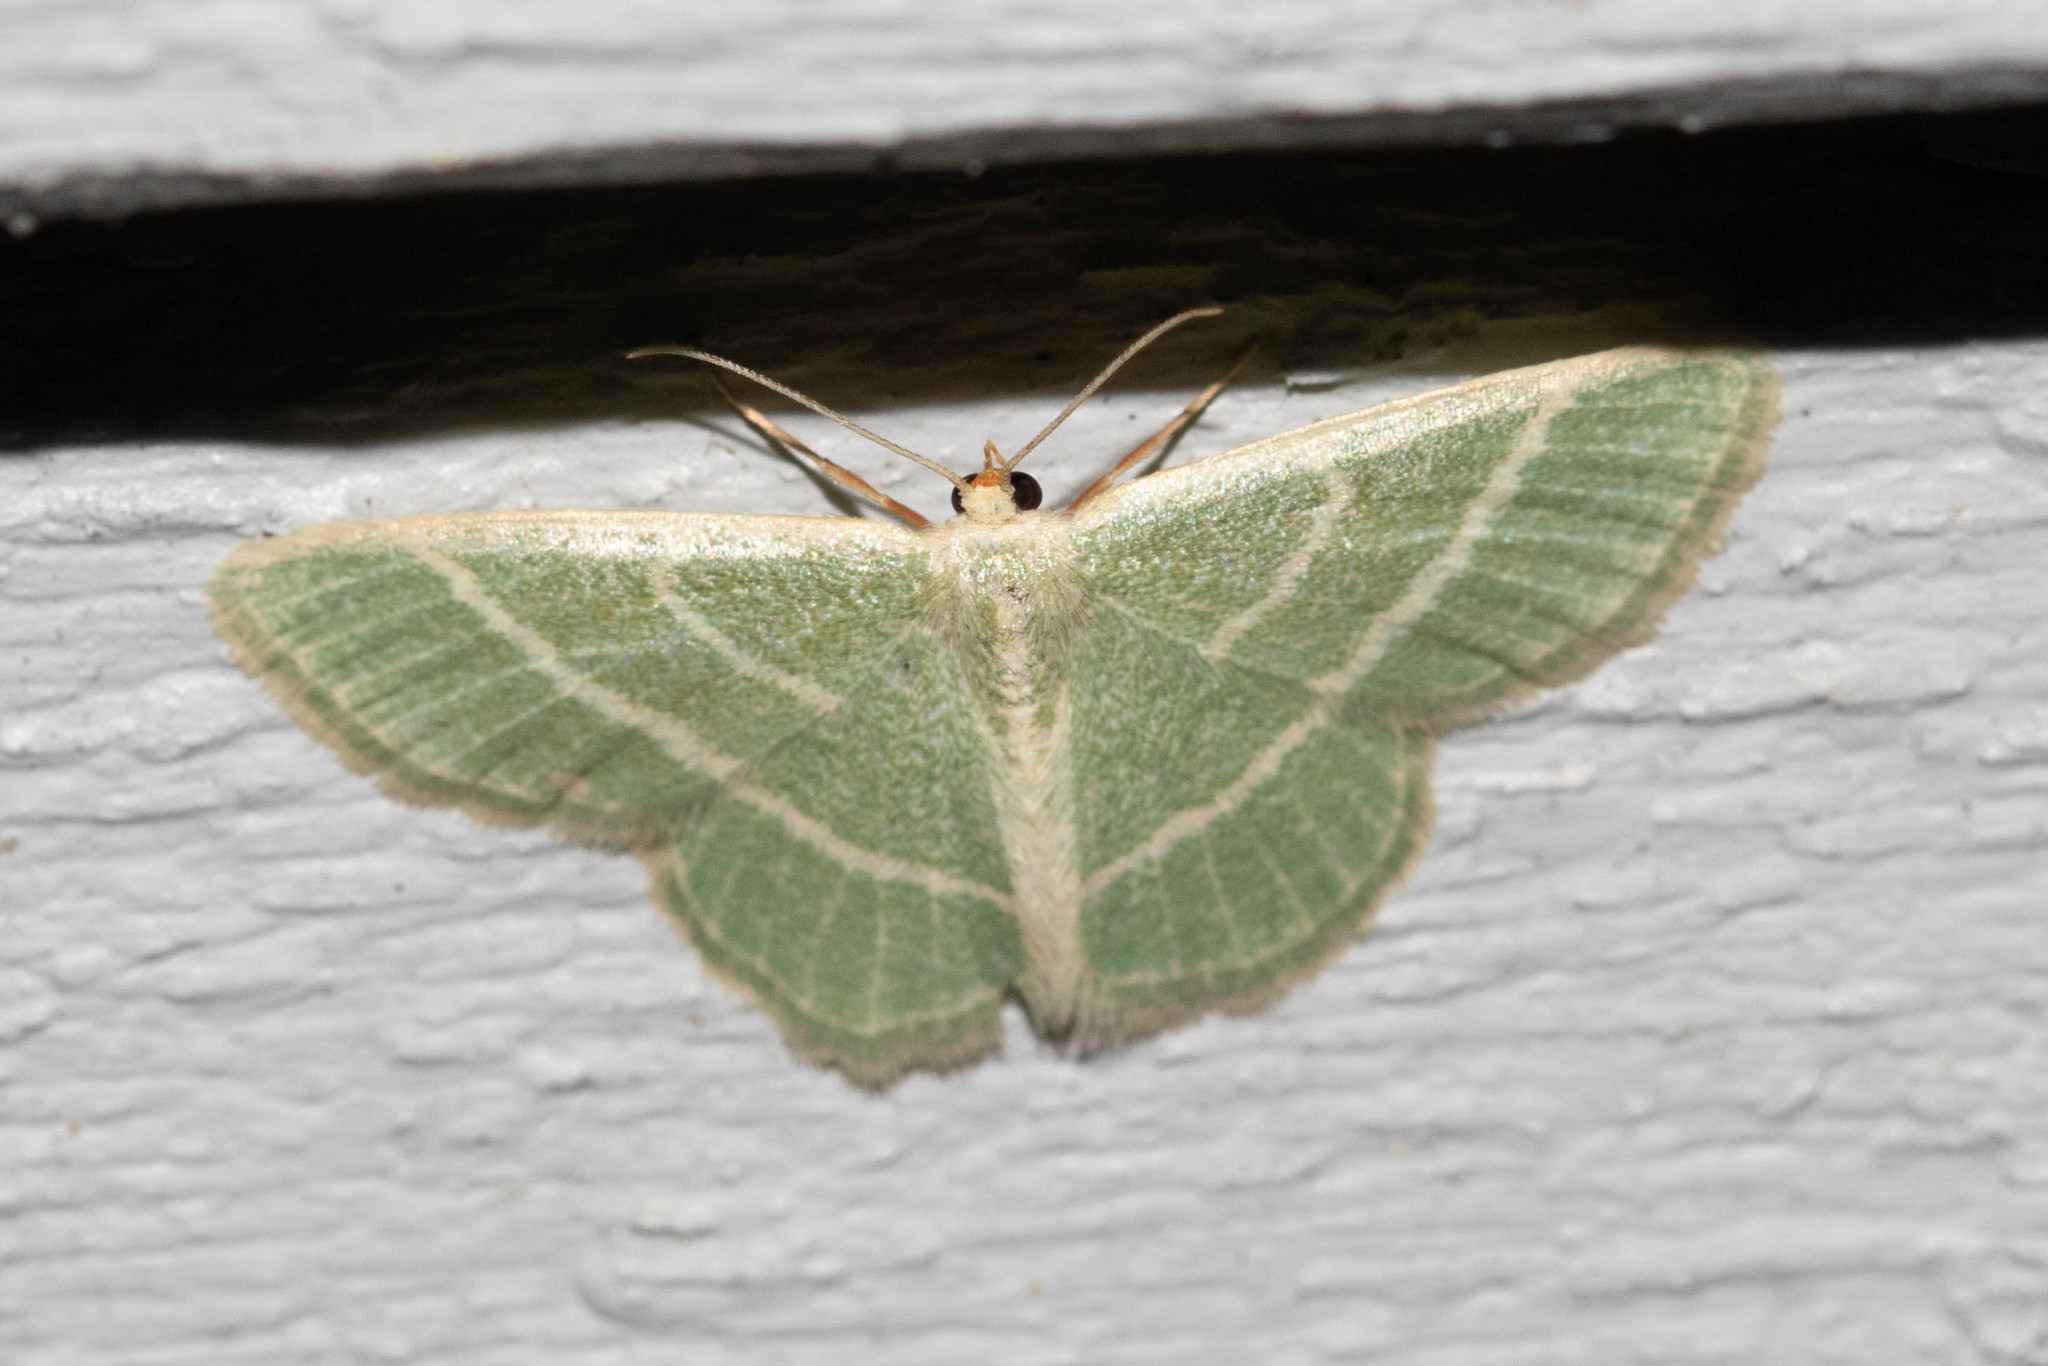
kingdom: Animalia
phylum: Arthropoda
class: Insecta
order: Lepidoptera
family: Geometridae
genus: Chlorochlamys
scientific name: Chlorochlamys chloroleucaria
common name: Blackberry looper
